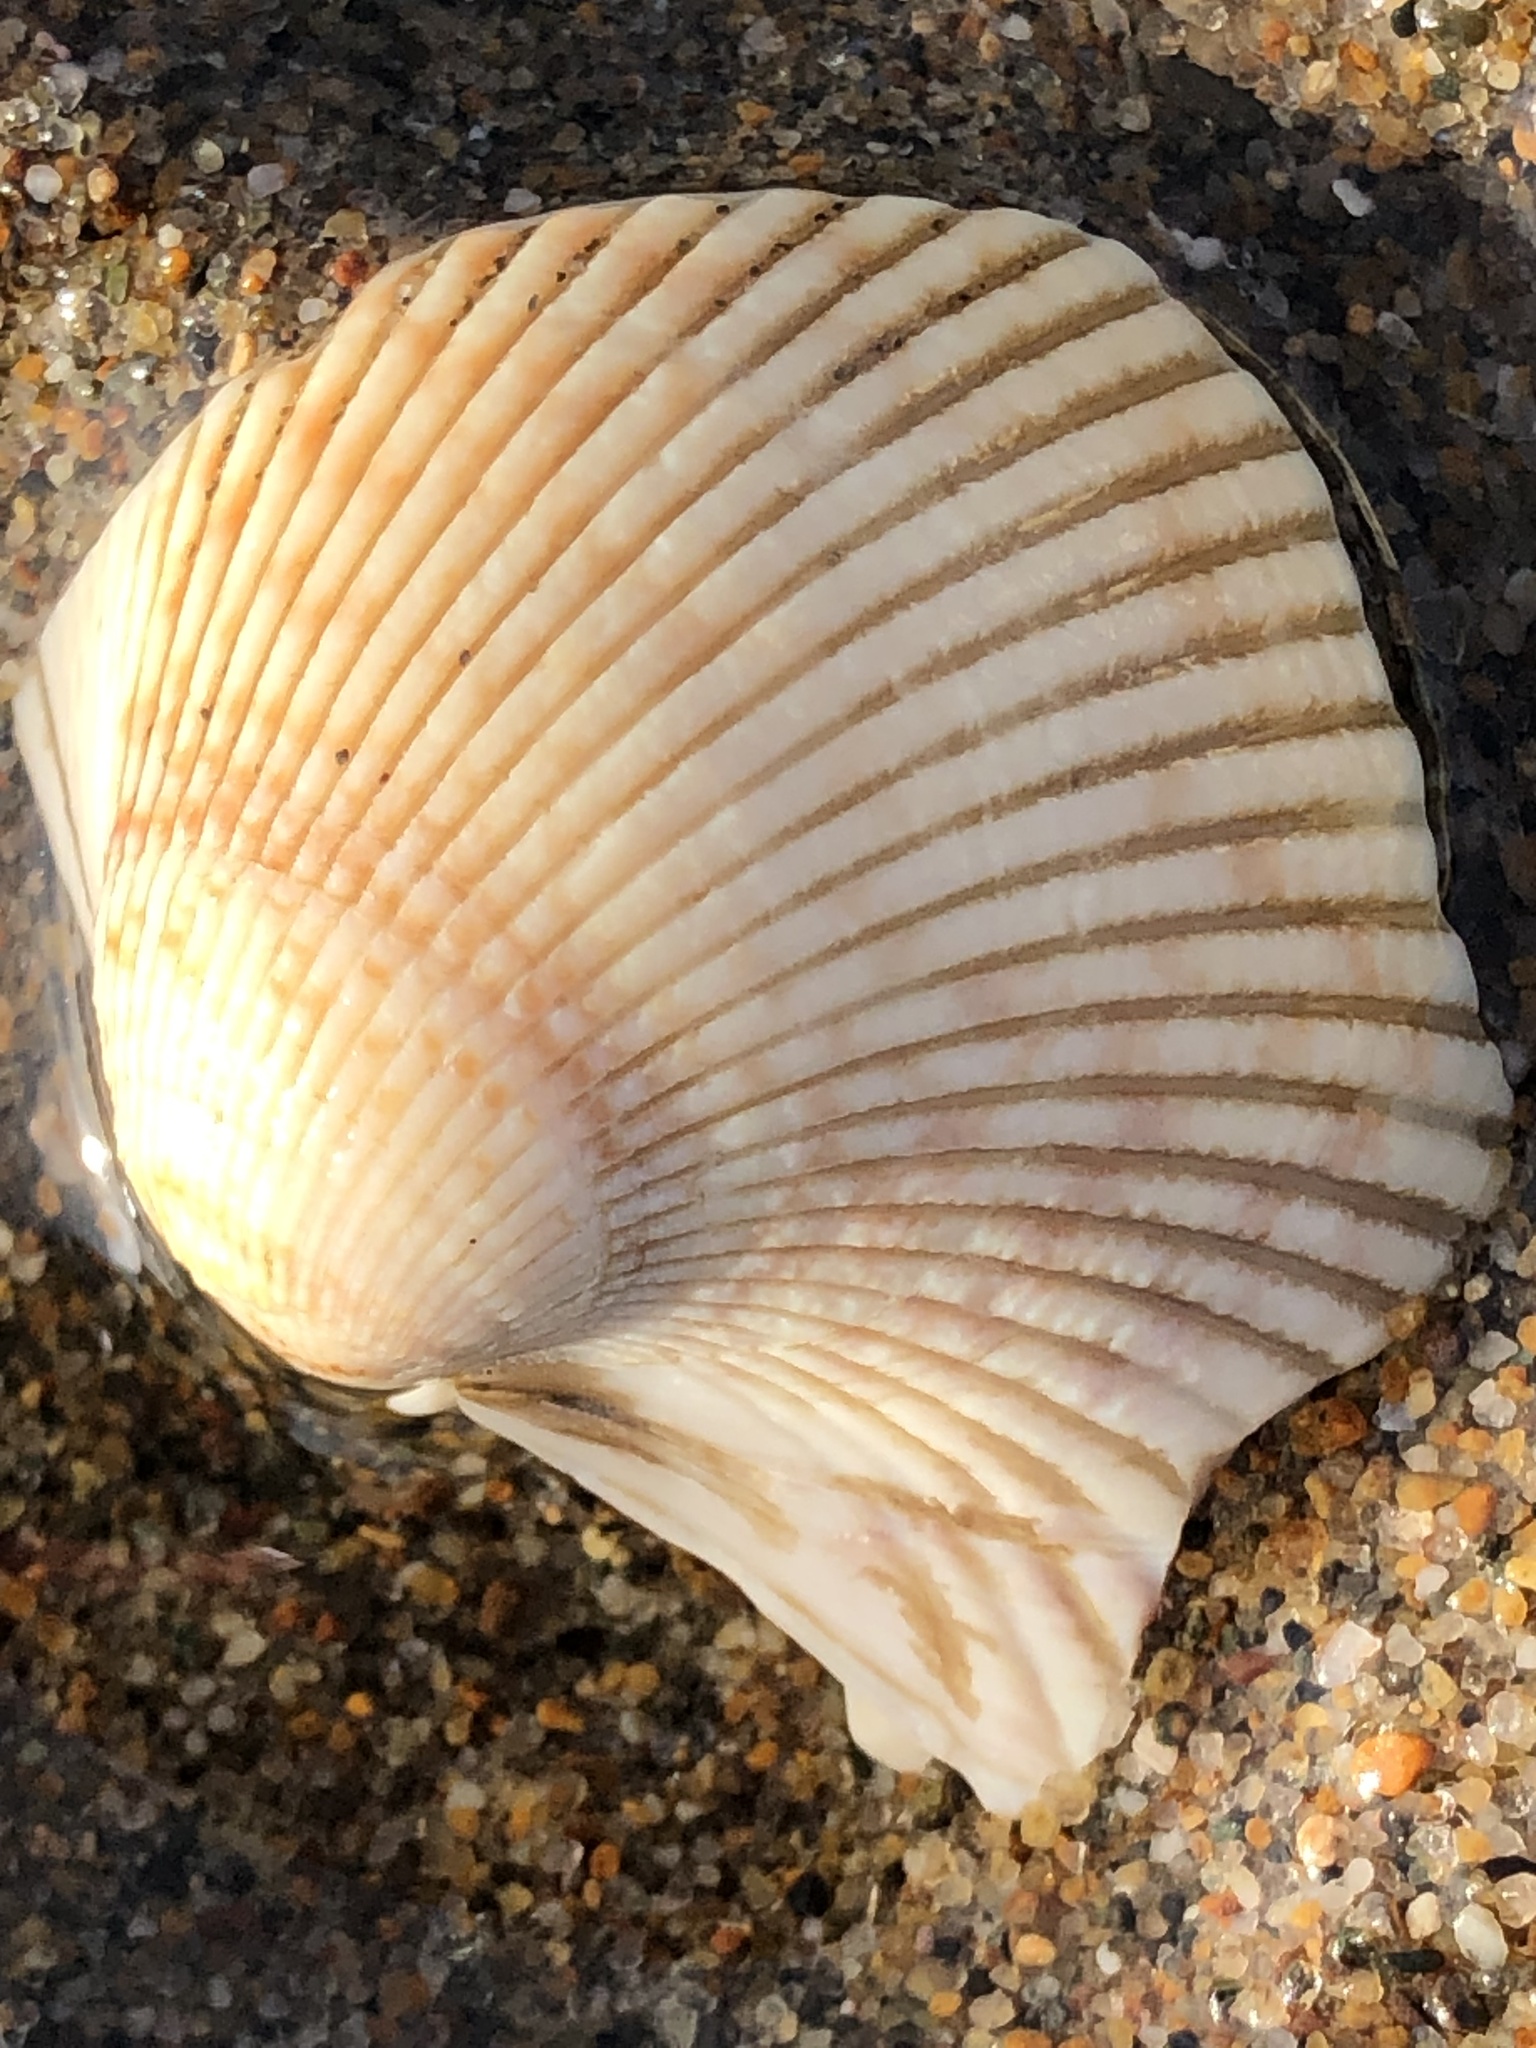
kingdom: Animalia
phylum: Mollusca
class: Bivalvia
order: Cardiida
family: Cardiidae
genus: Clinocardium
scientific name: Clinocardium nuttallii
